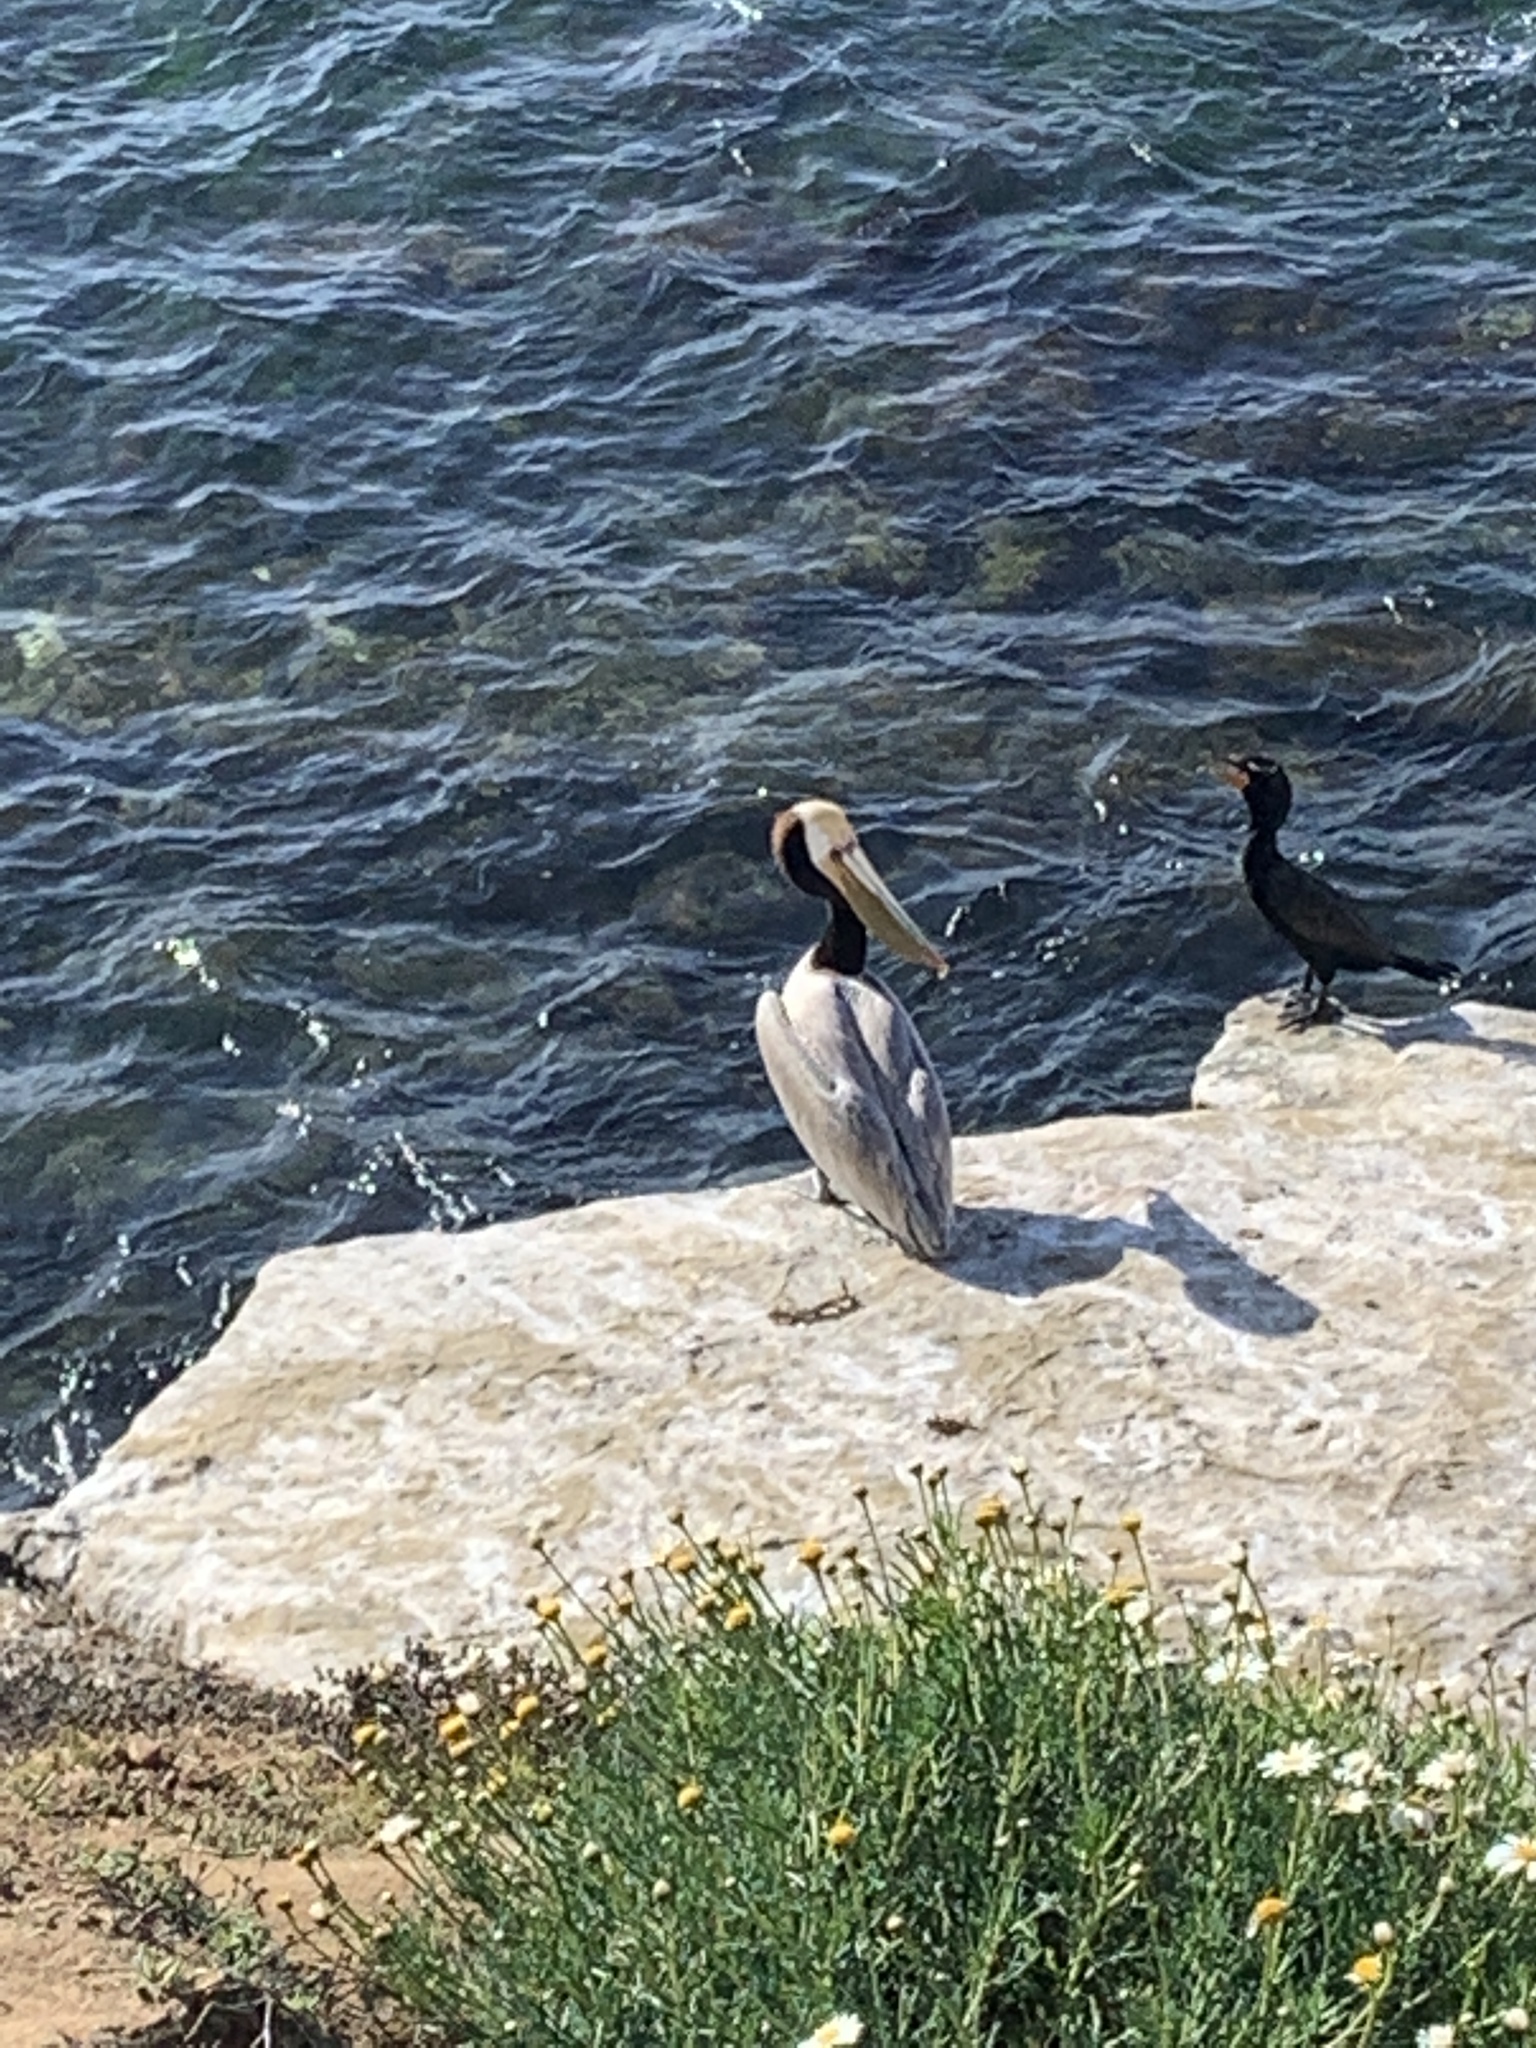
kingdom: Animalia
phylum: Chordata
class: Aves
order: Pelecaniformes
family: Pelecanidae
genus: Pelecanus
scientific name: Pelecanus occidentalis
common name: Brown pelican
